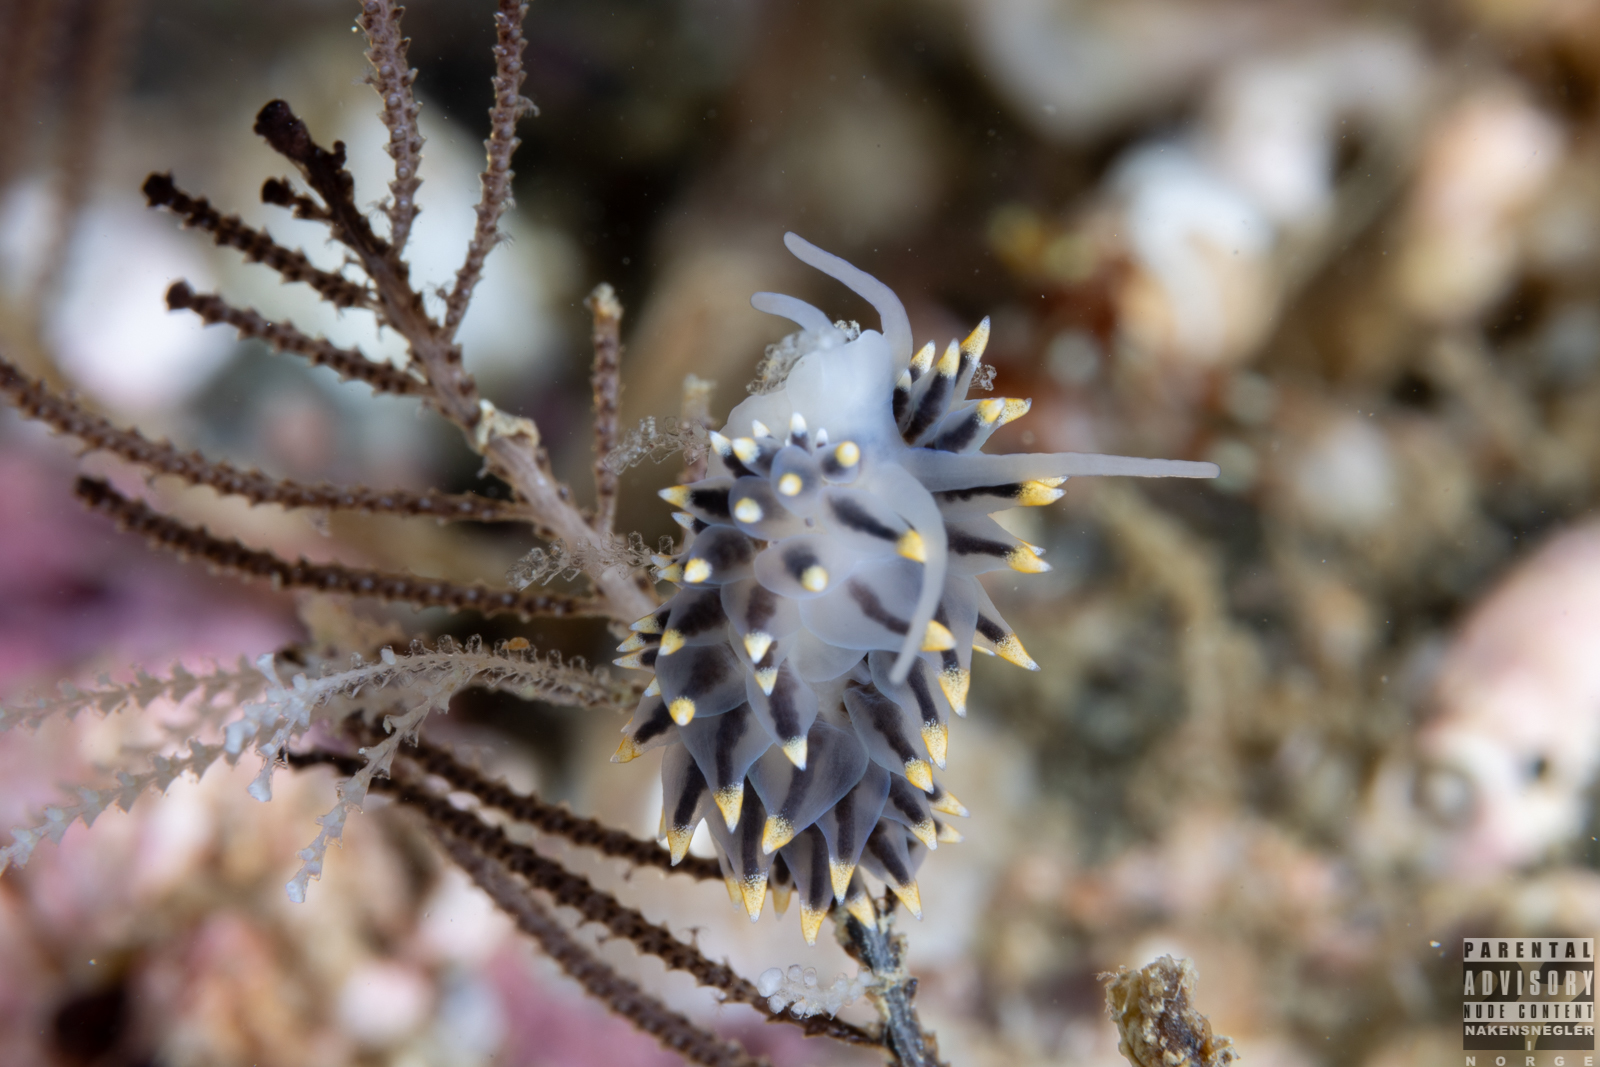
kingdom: Animalia
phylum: Mollusca
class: Gastropoda
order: Nudibranchia
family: Eubranchidae
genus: Eubranchus
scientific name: Eubranchus tricolor
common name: Painted balloon aeolis
